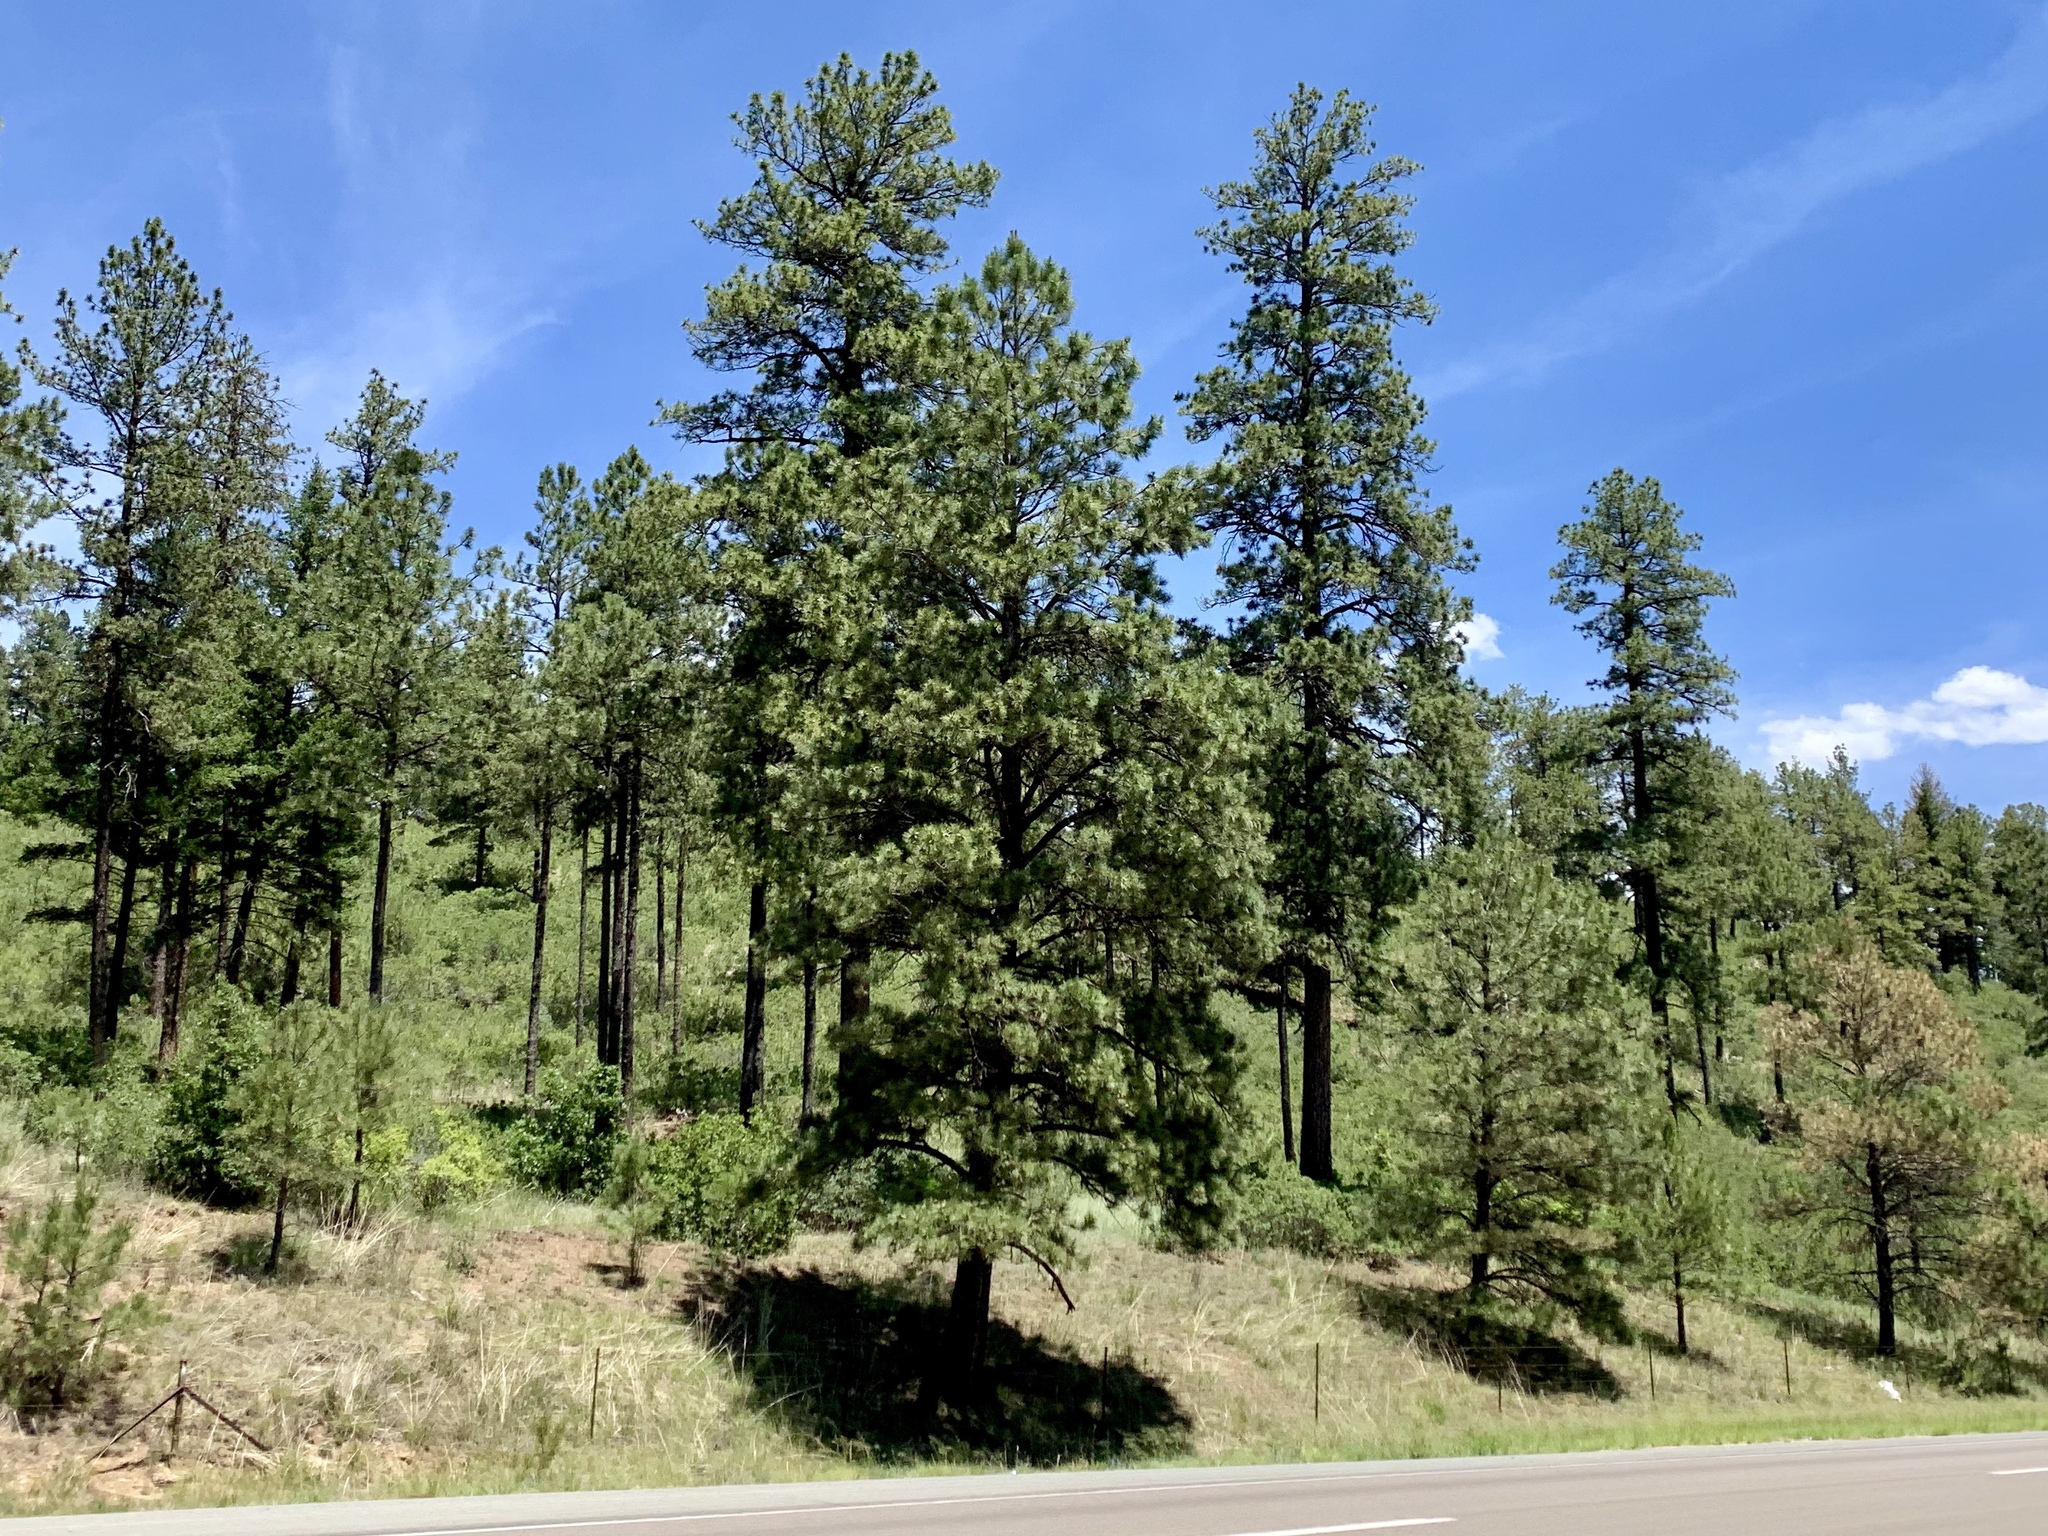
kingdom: Plantae
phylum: Tracheophyta
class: Pinopsida
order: Pinales
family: Pinaceae
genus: Pinus
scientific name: Pinus ponderosa
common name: Western yellow-pine
